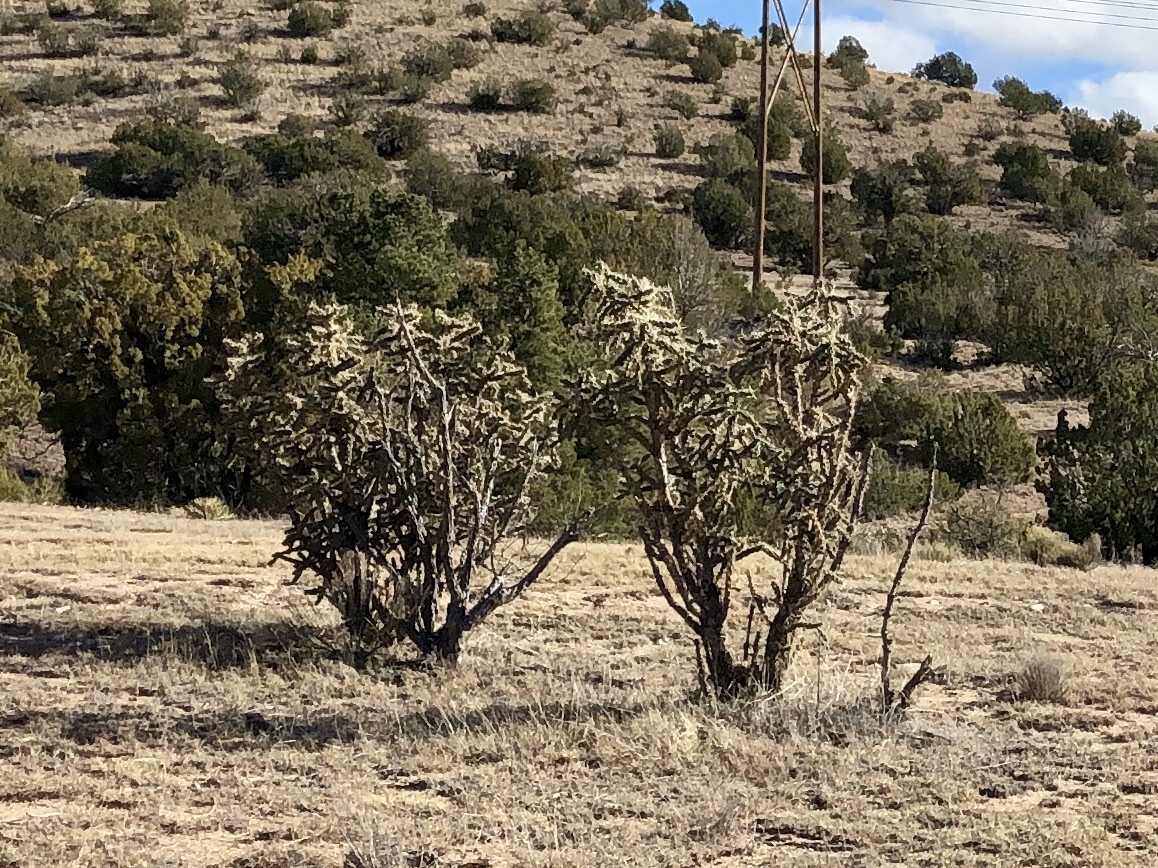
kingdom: Plantae
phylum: Tracheophyta
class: Magnoliopsida
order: Caryophyllales
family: Cactaceae
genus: Cylindropuntia
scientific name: Cylindropuntia imbricata
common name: Candelabrum cactus
